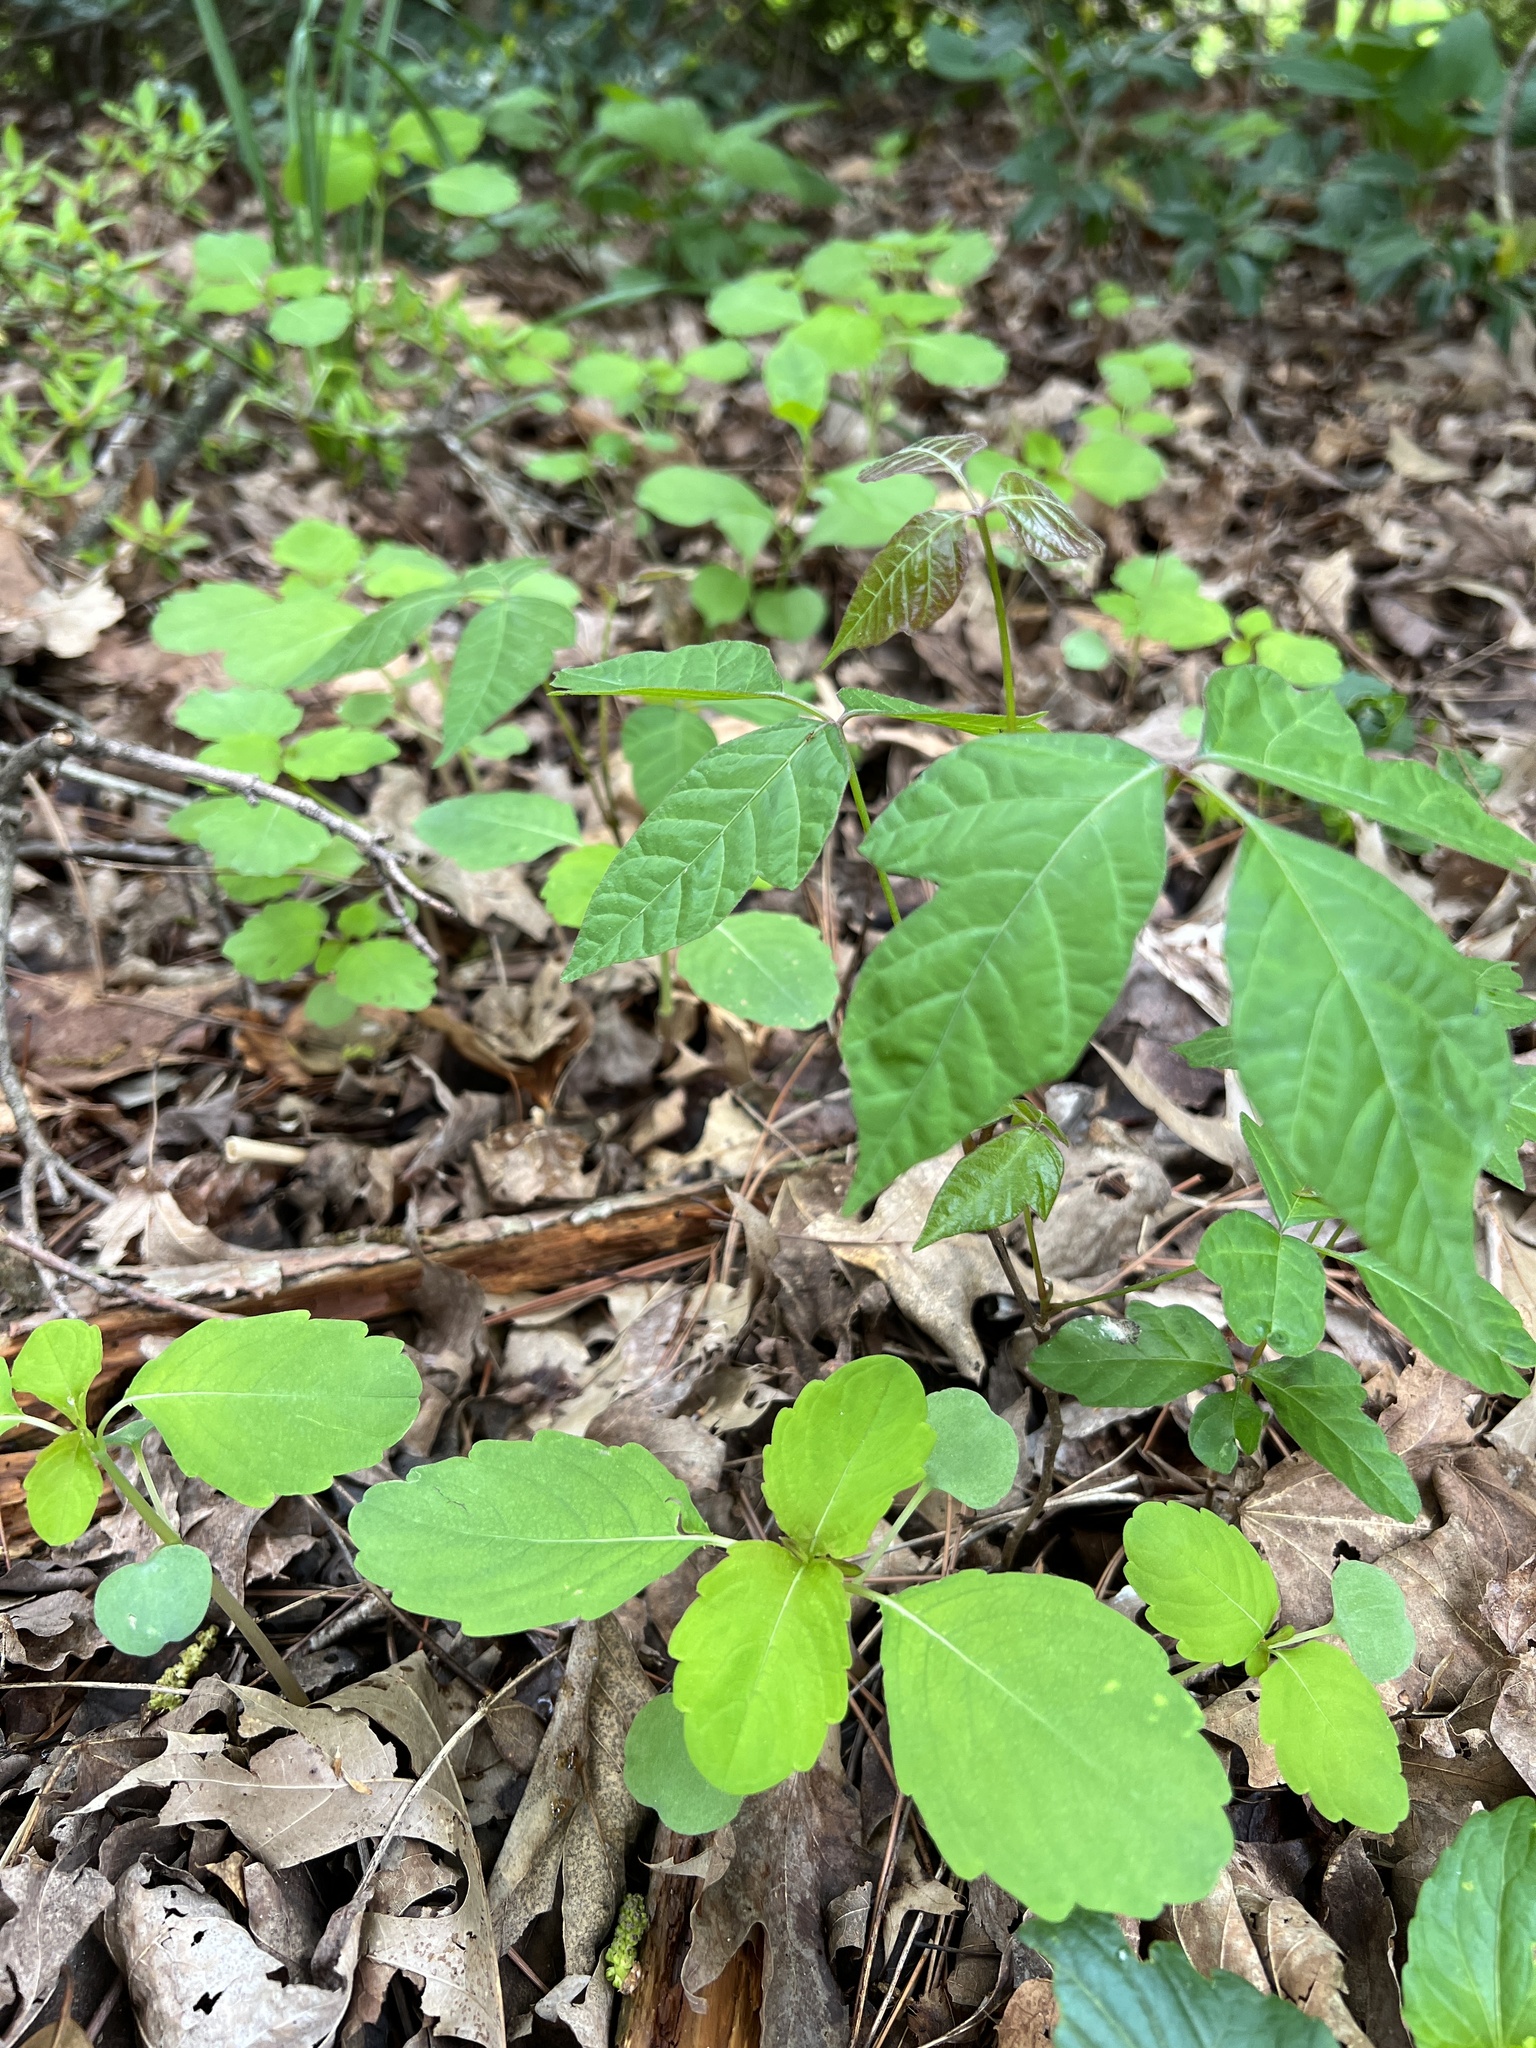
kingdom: Plantae
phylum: Tracheophyta
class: Magnoliopsida
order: Sapindales
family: Anacardiaceae
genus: Toxicodendron
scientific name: Toxicodendron radicans
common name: Poison ivy
